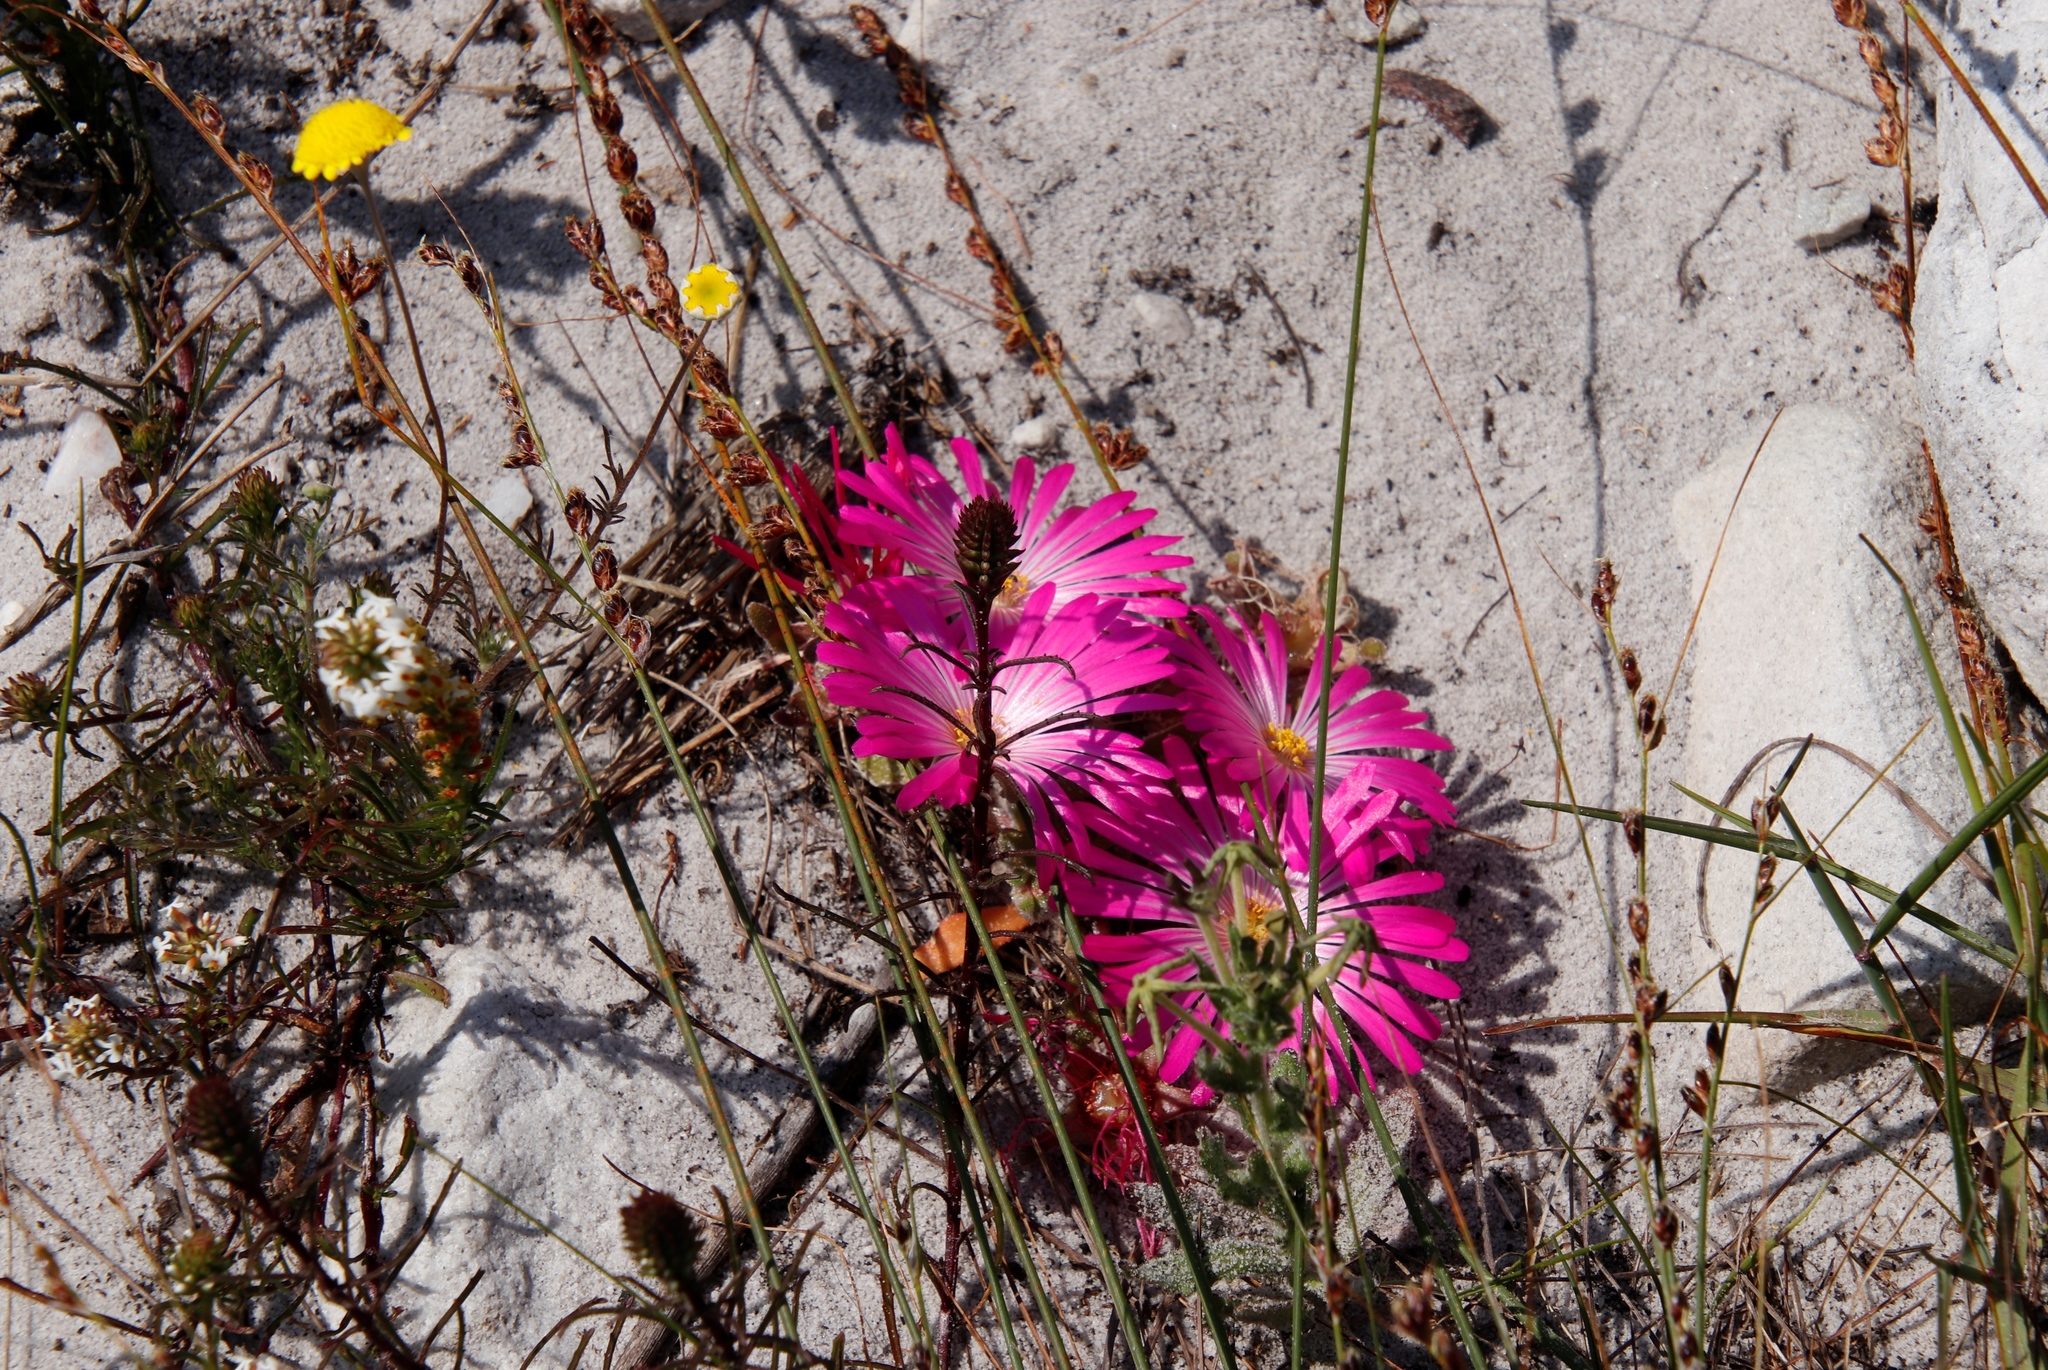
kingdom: Plantae
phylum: Tracheophyta
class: Magnoliopsida
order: Caryophyllales
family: Aizoaceae
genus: Cleretum
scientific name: Cleretum bellidiforme
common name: Livingstone daisy
